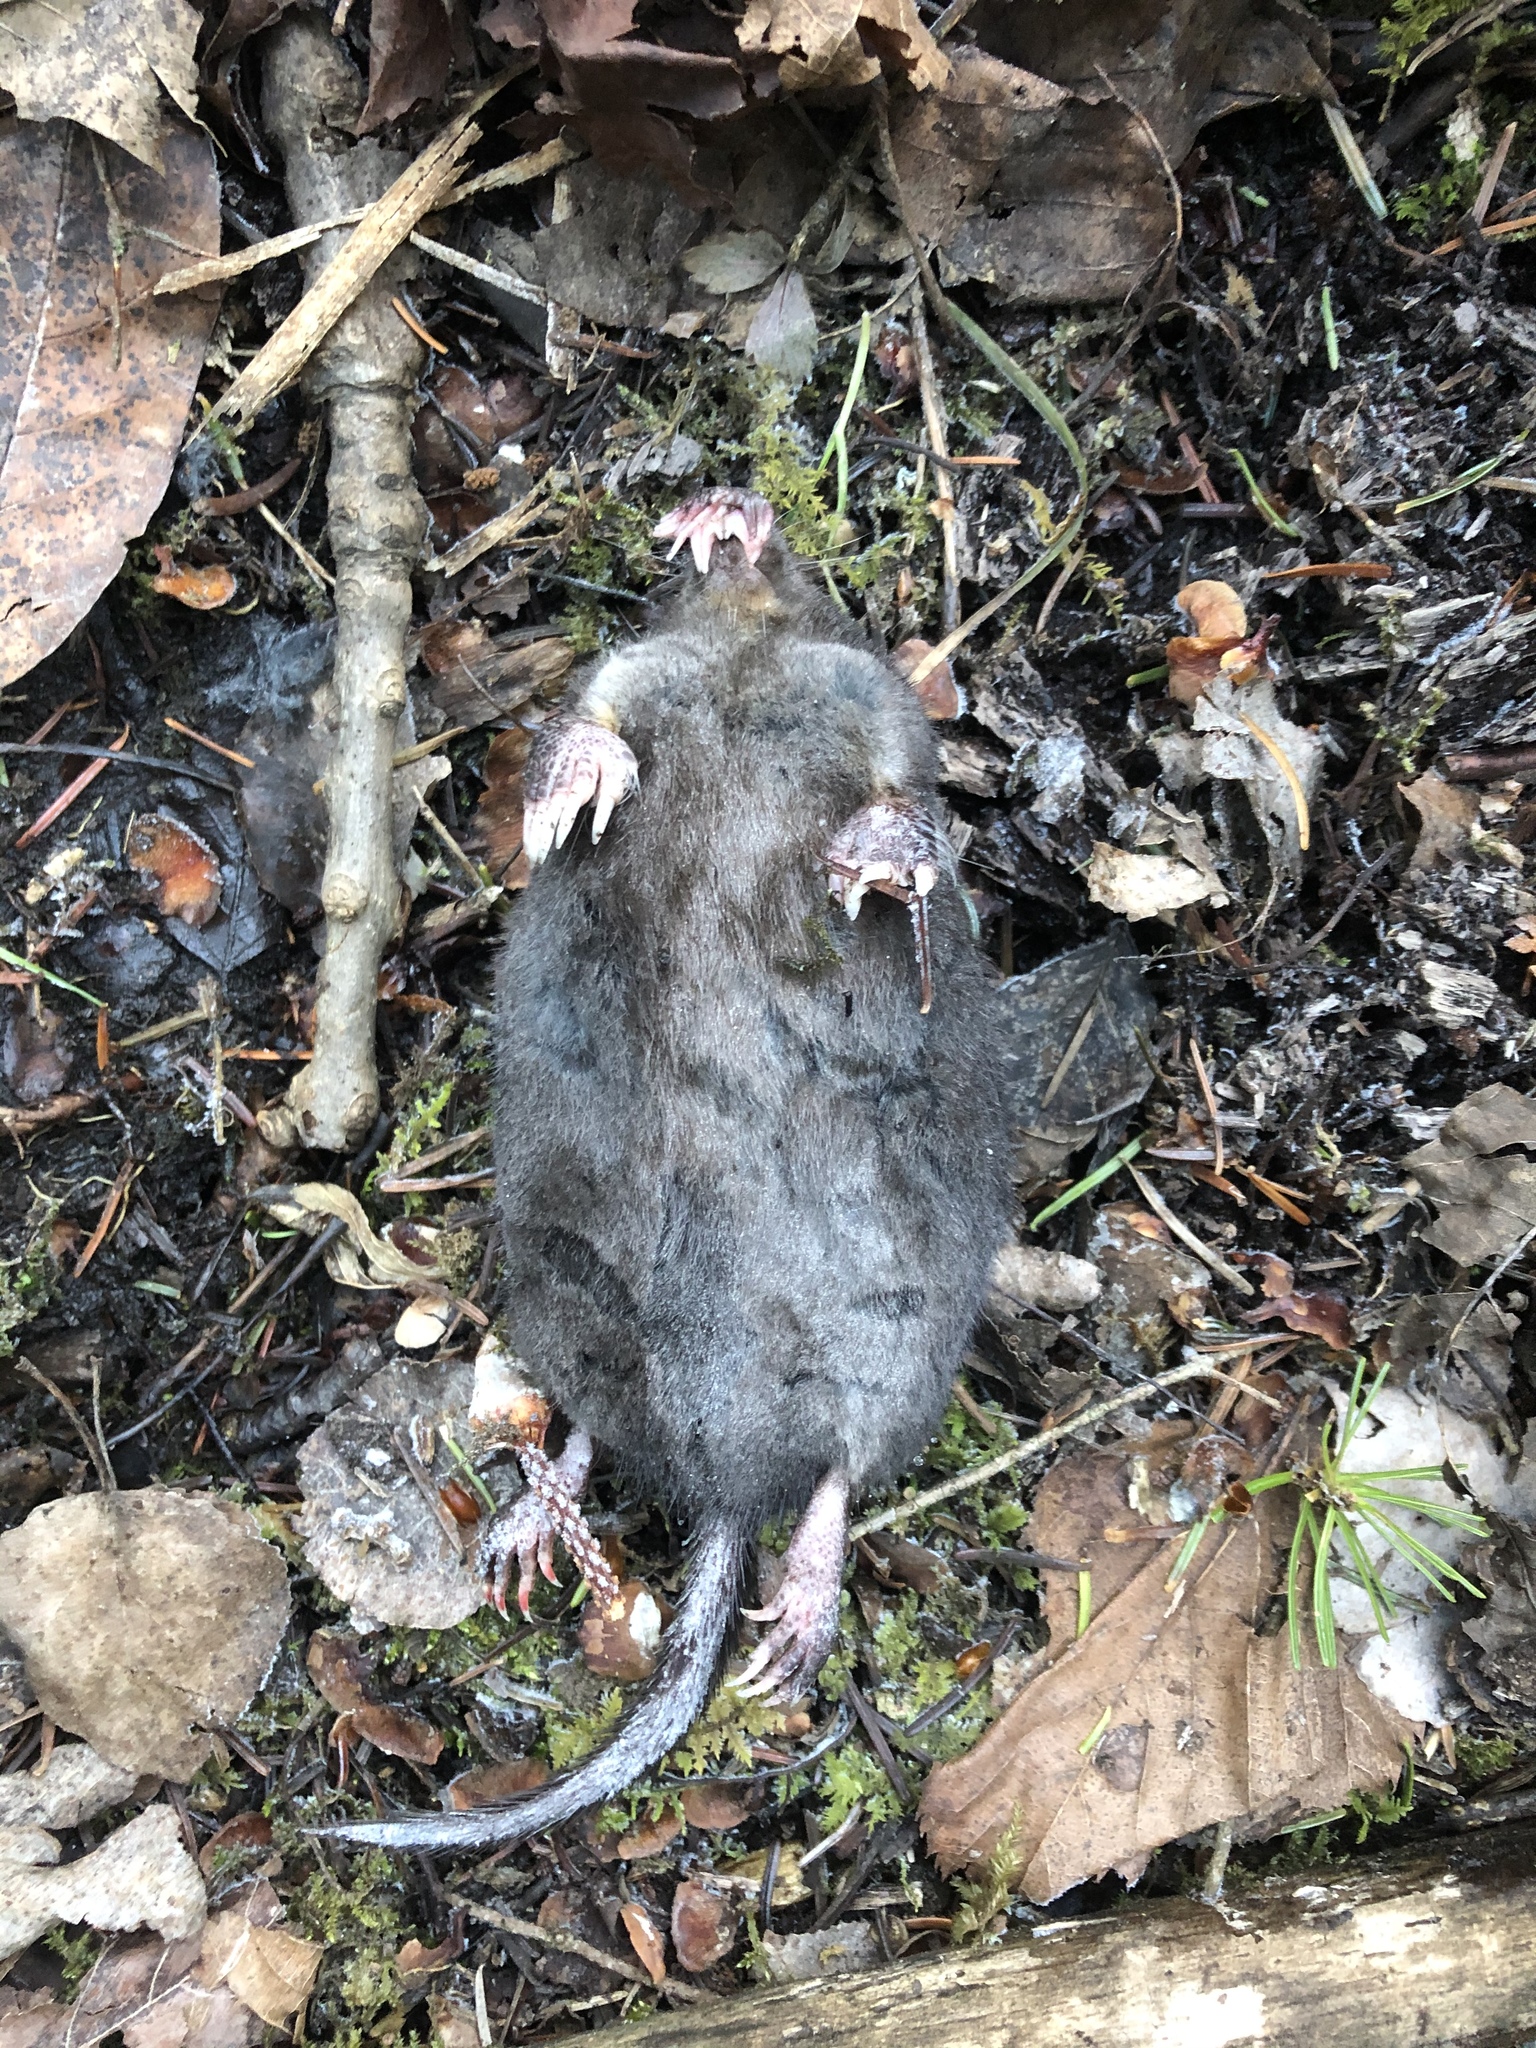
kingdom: Animalia
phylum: Chordata
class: Mammalia
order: Soricomorpha
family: Talpidae
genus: Condylura
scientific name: Condylura cristata
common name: Star-nosed mole
